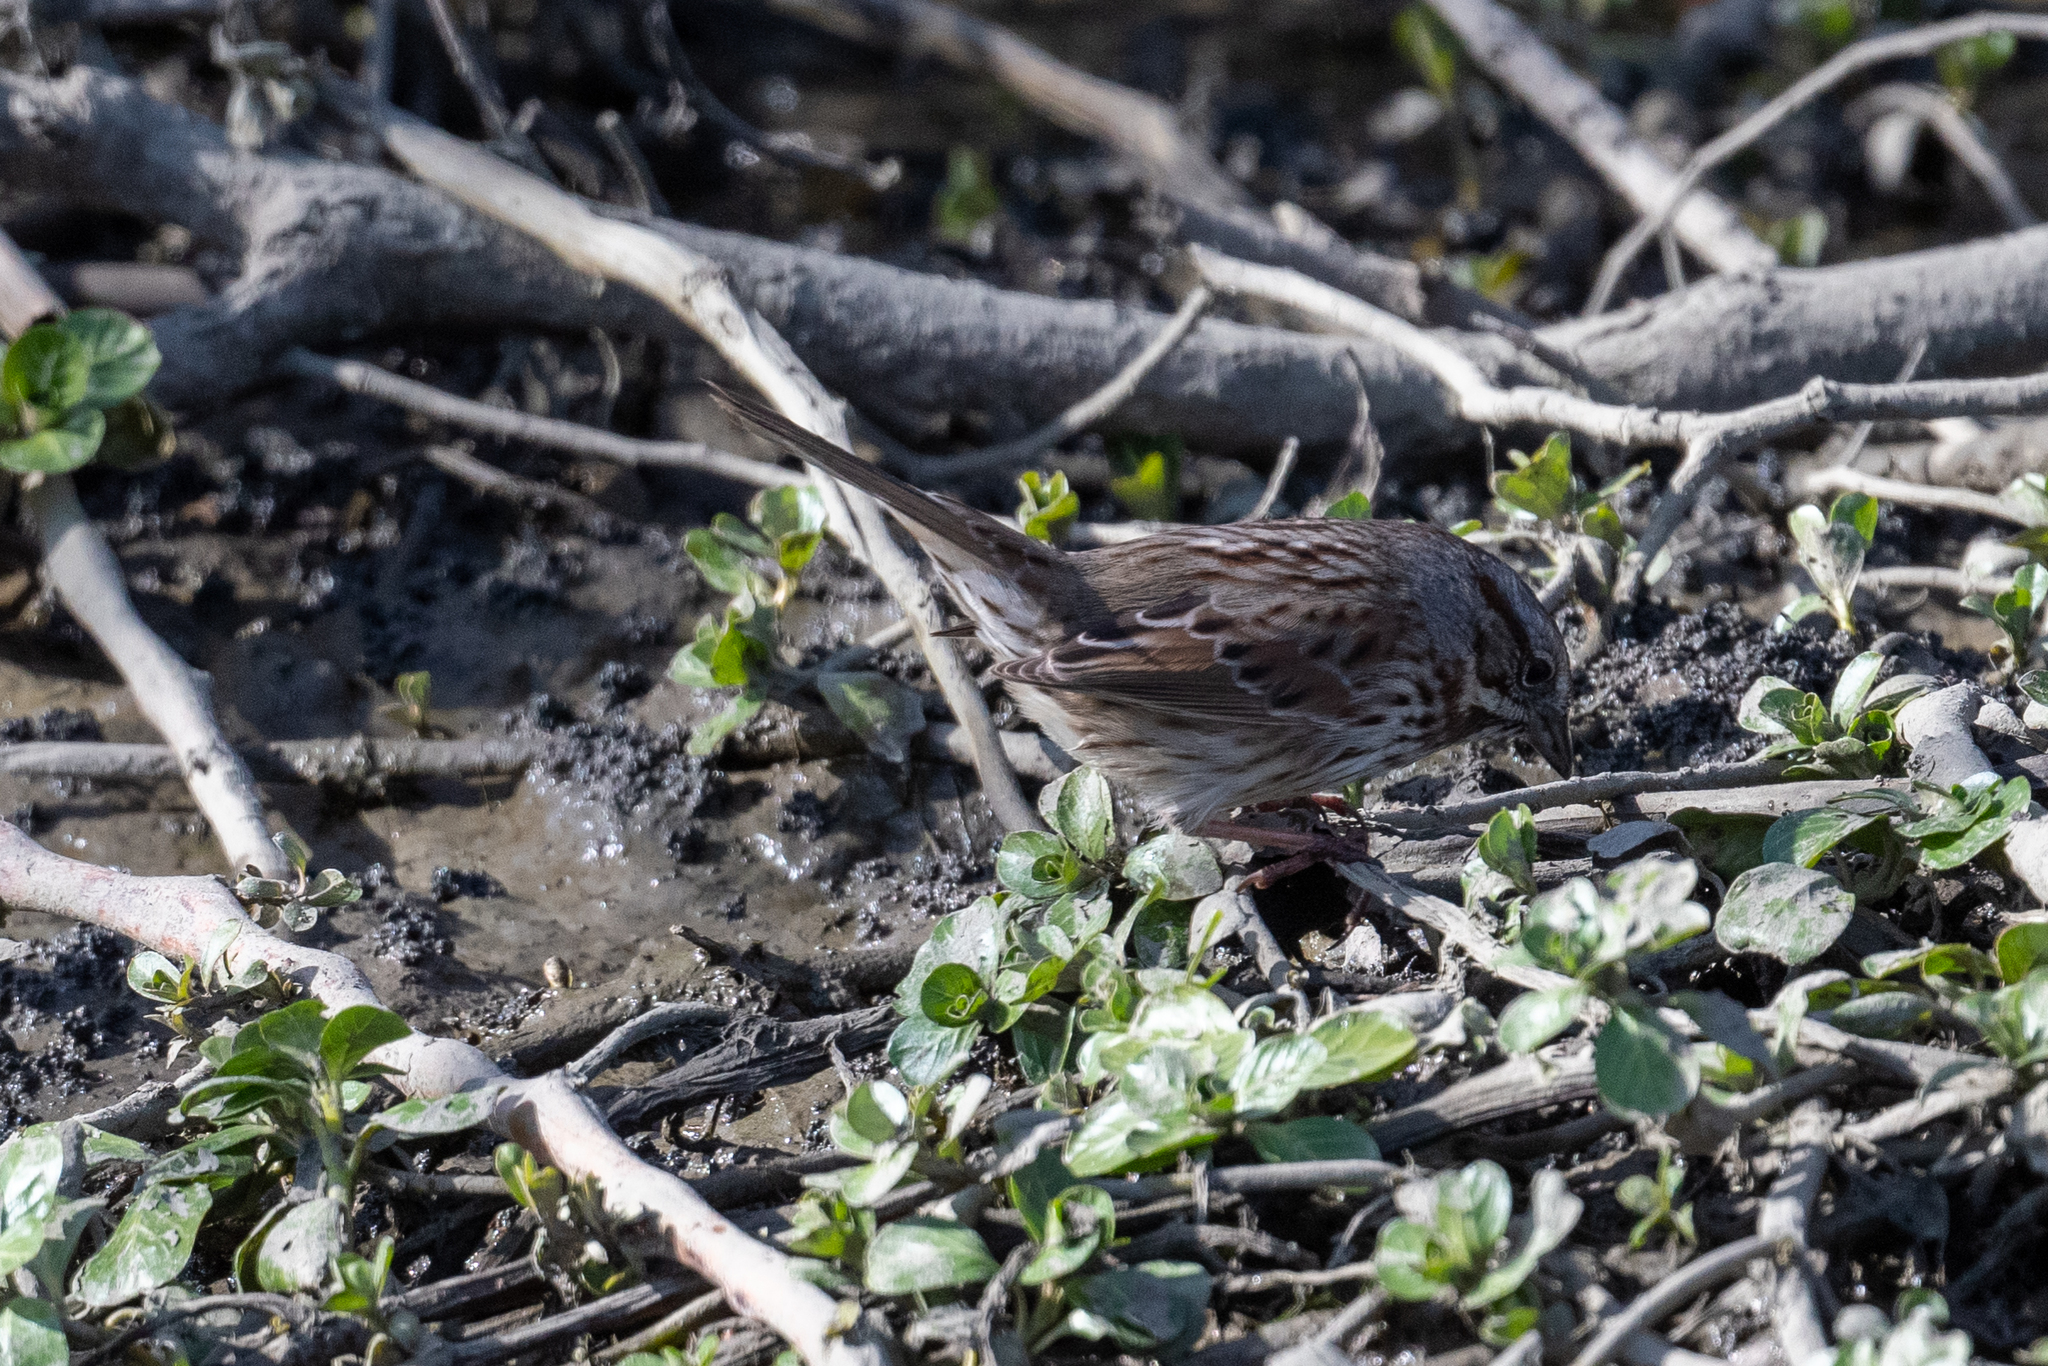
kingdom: Animalia
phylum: Chordata
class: Aves
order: Passeriformes
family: Passerellidae
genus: Melospiza
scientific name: Melospiza melodia
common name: Song sparrow
